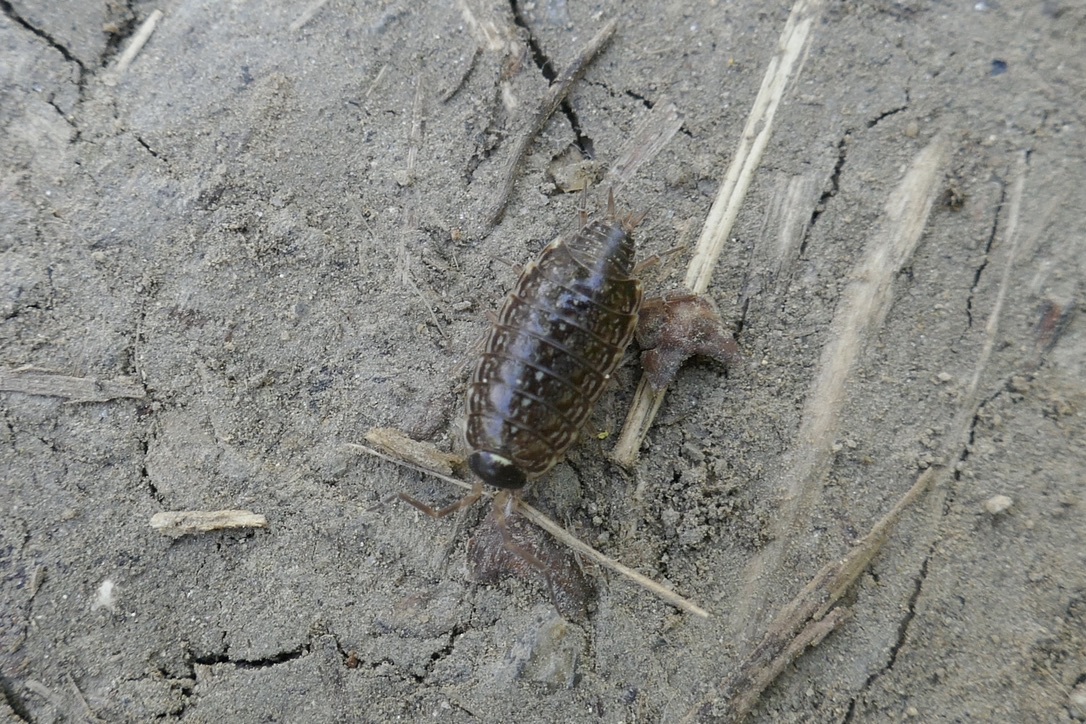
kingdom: Animalia
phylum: Arthropoda
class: Malacostraca
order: Isopoda
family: Philosciidae
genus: Philoscia
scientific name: Philoscia muscorum
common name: Common striped woodlouse
